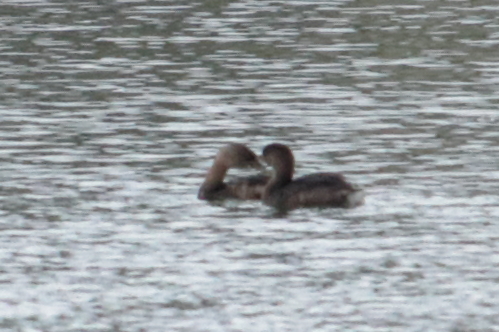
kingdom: Animalia
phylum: Chordata
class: Aves
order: Podicipediformes
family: Podicipedidae
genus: Podilymbus
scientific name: Podilymbus podiceps
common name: Pied-billed grebe
